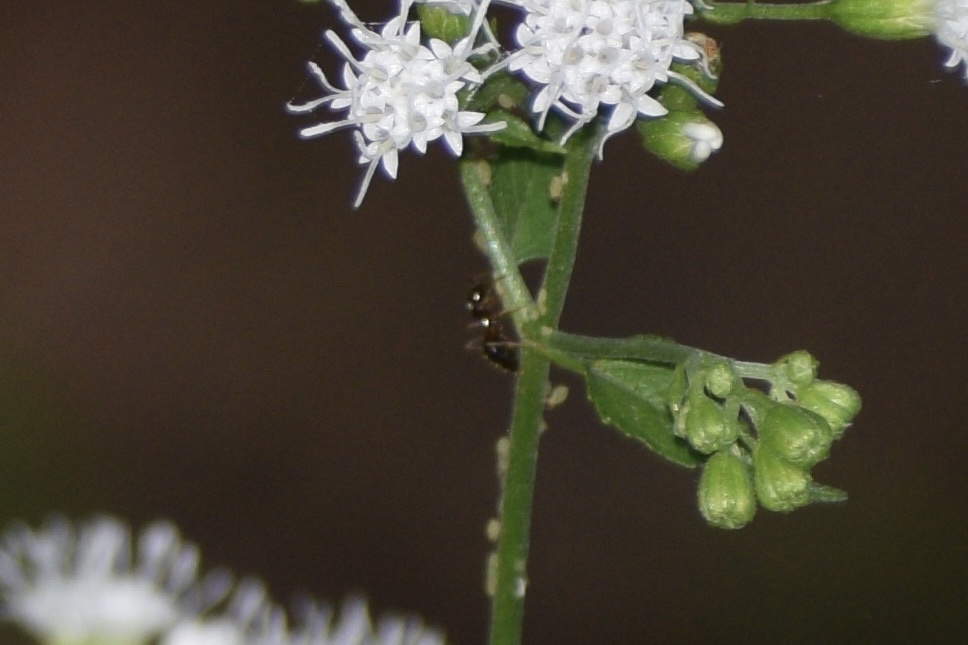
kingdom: Animalia
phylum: Arthropoda
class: Insecta
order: Hymenoptera
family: Formicidae
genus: Prenolepis
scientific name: Prenolepis imparis
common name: Small honey ant
